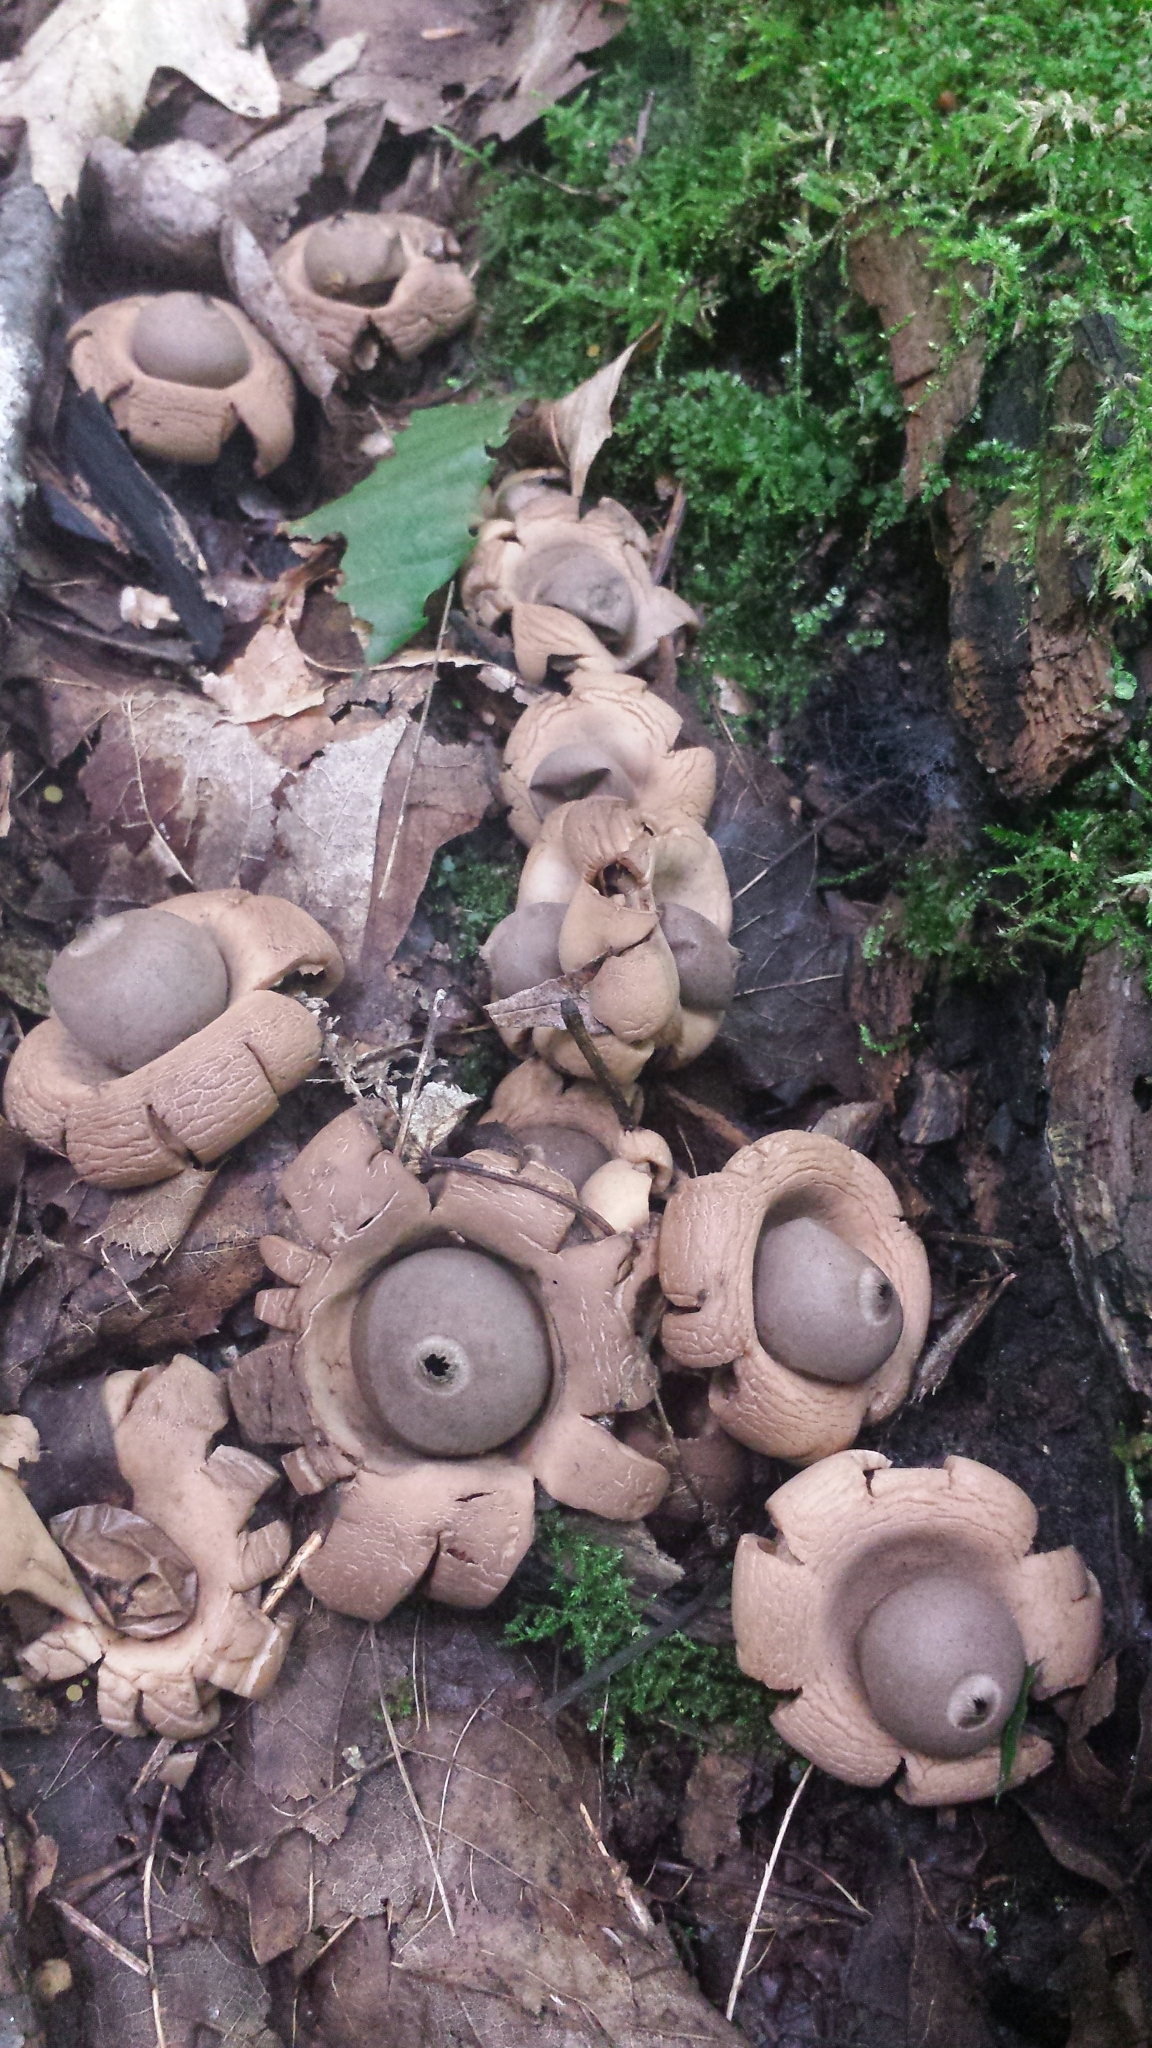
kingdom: Fungi
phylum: Basidiomycota
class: Agaricomycetes
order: Geastrales
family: Geastraceae
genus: Geastrum
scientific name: Geastrum saccatum
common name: Rounded earthstar
